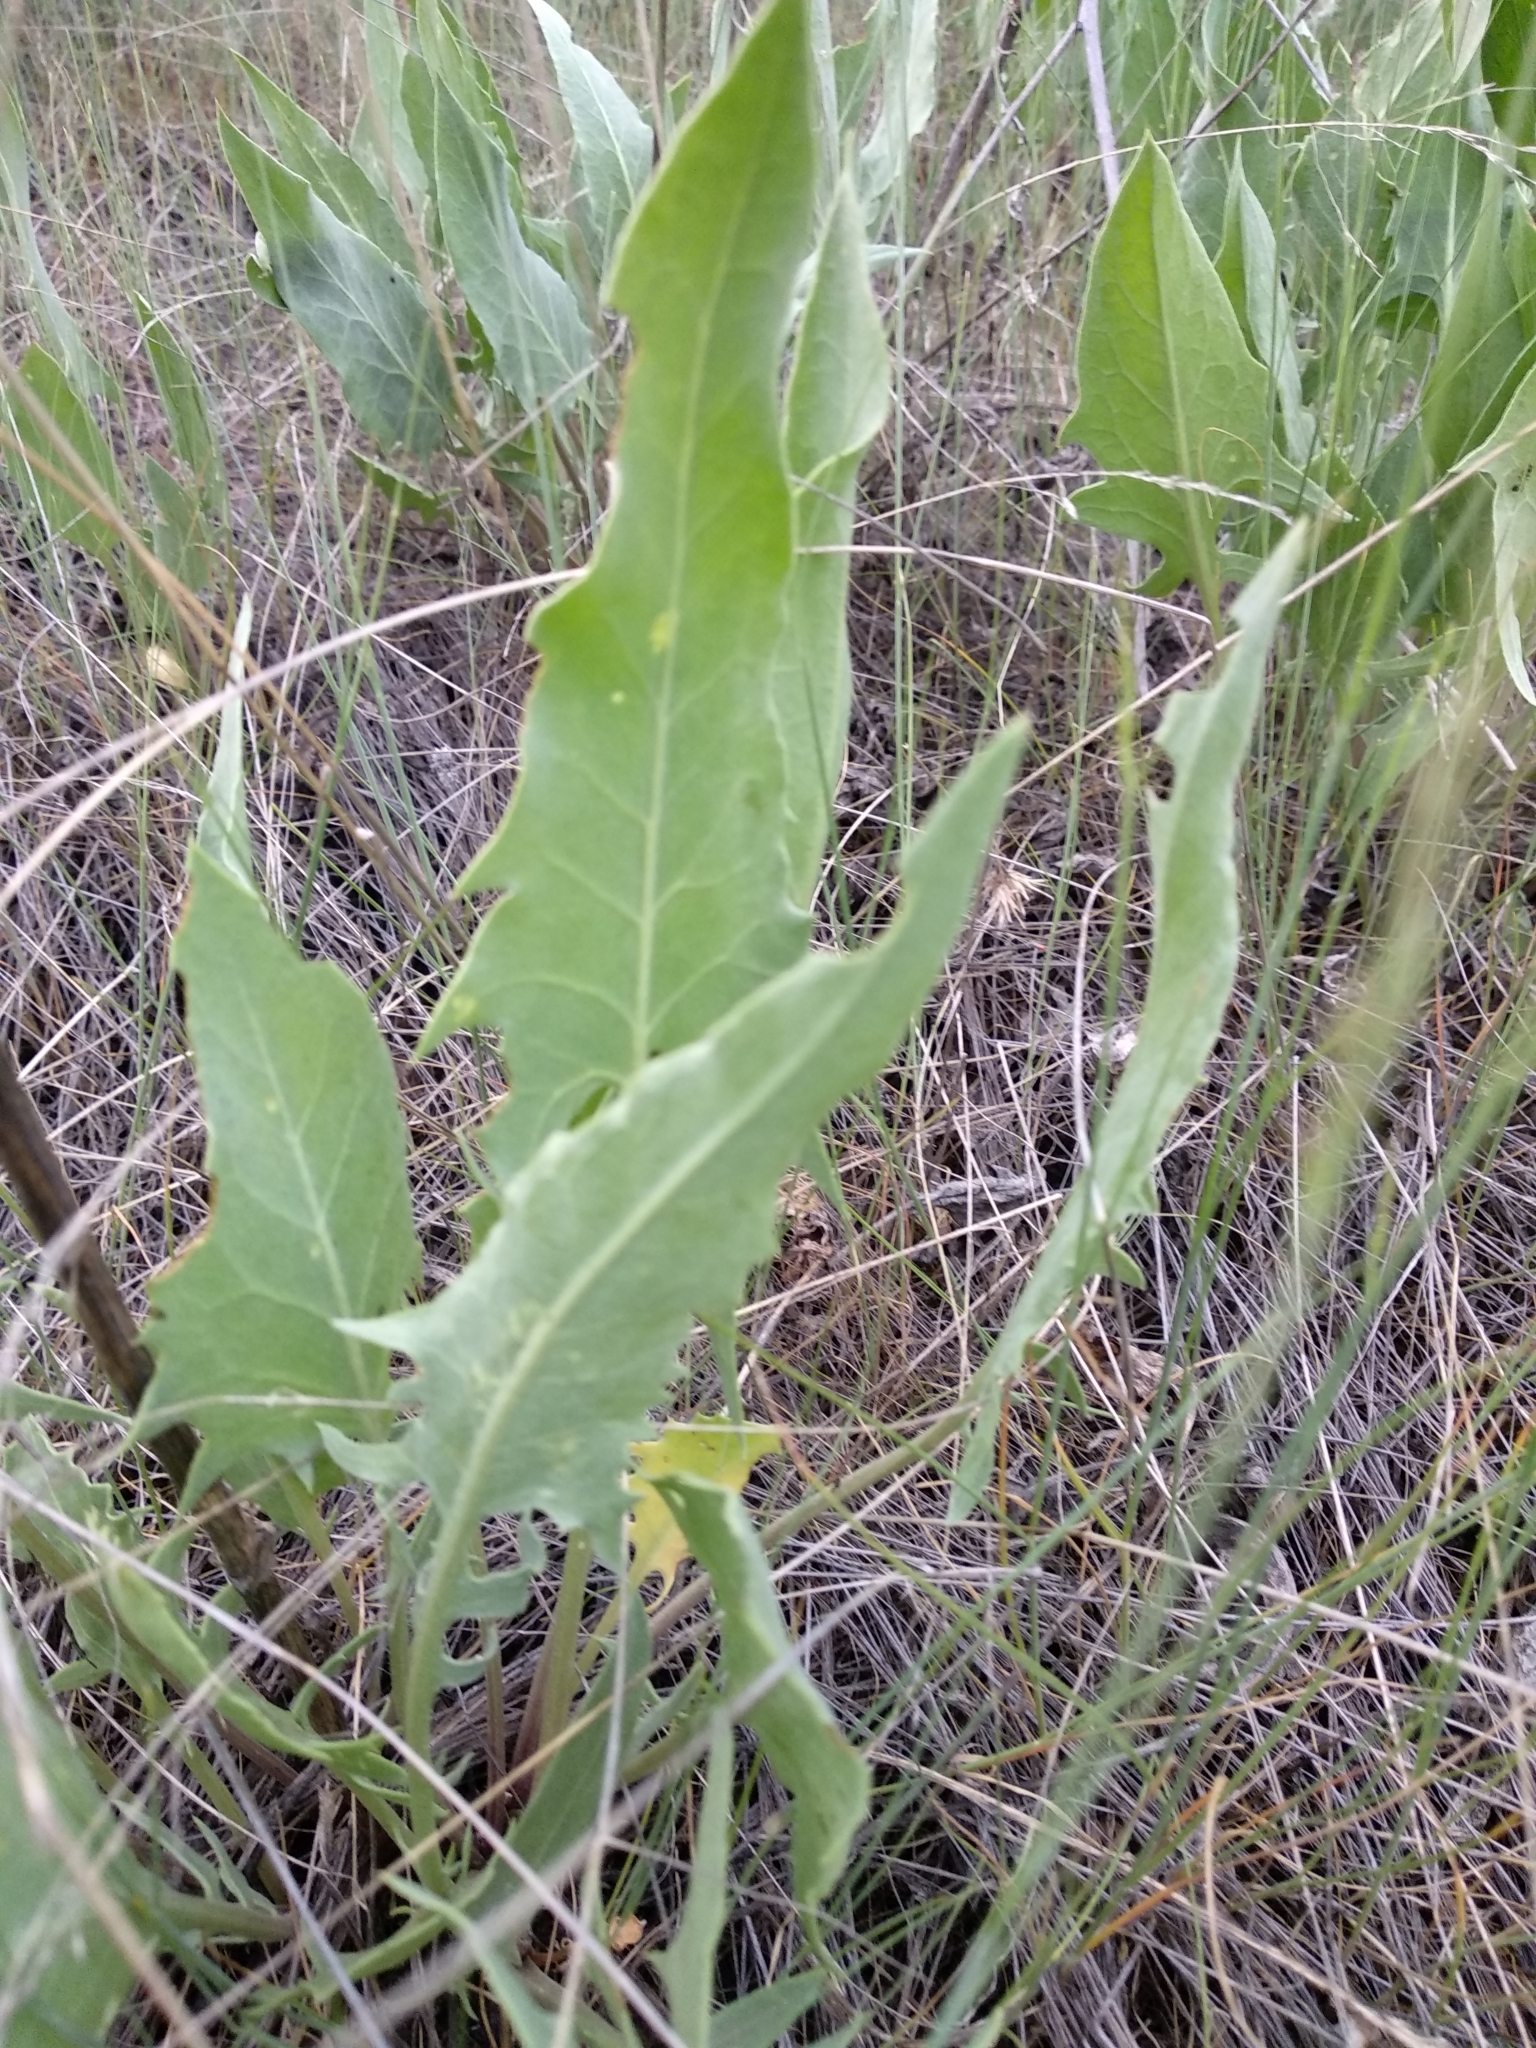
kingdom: Plantae
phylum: Tracheophyta
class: Magnoliopsida
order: Asterales
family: Asteraceae
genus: Saussurea
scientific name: Saussurea amara
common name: Alberta sawwort
